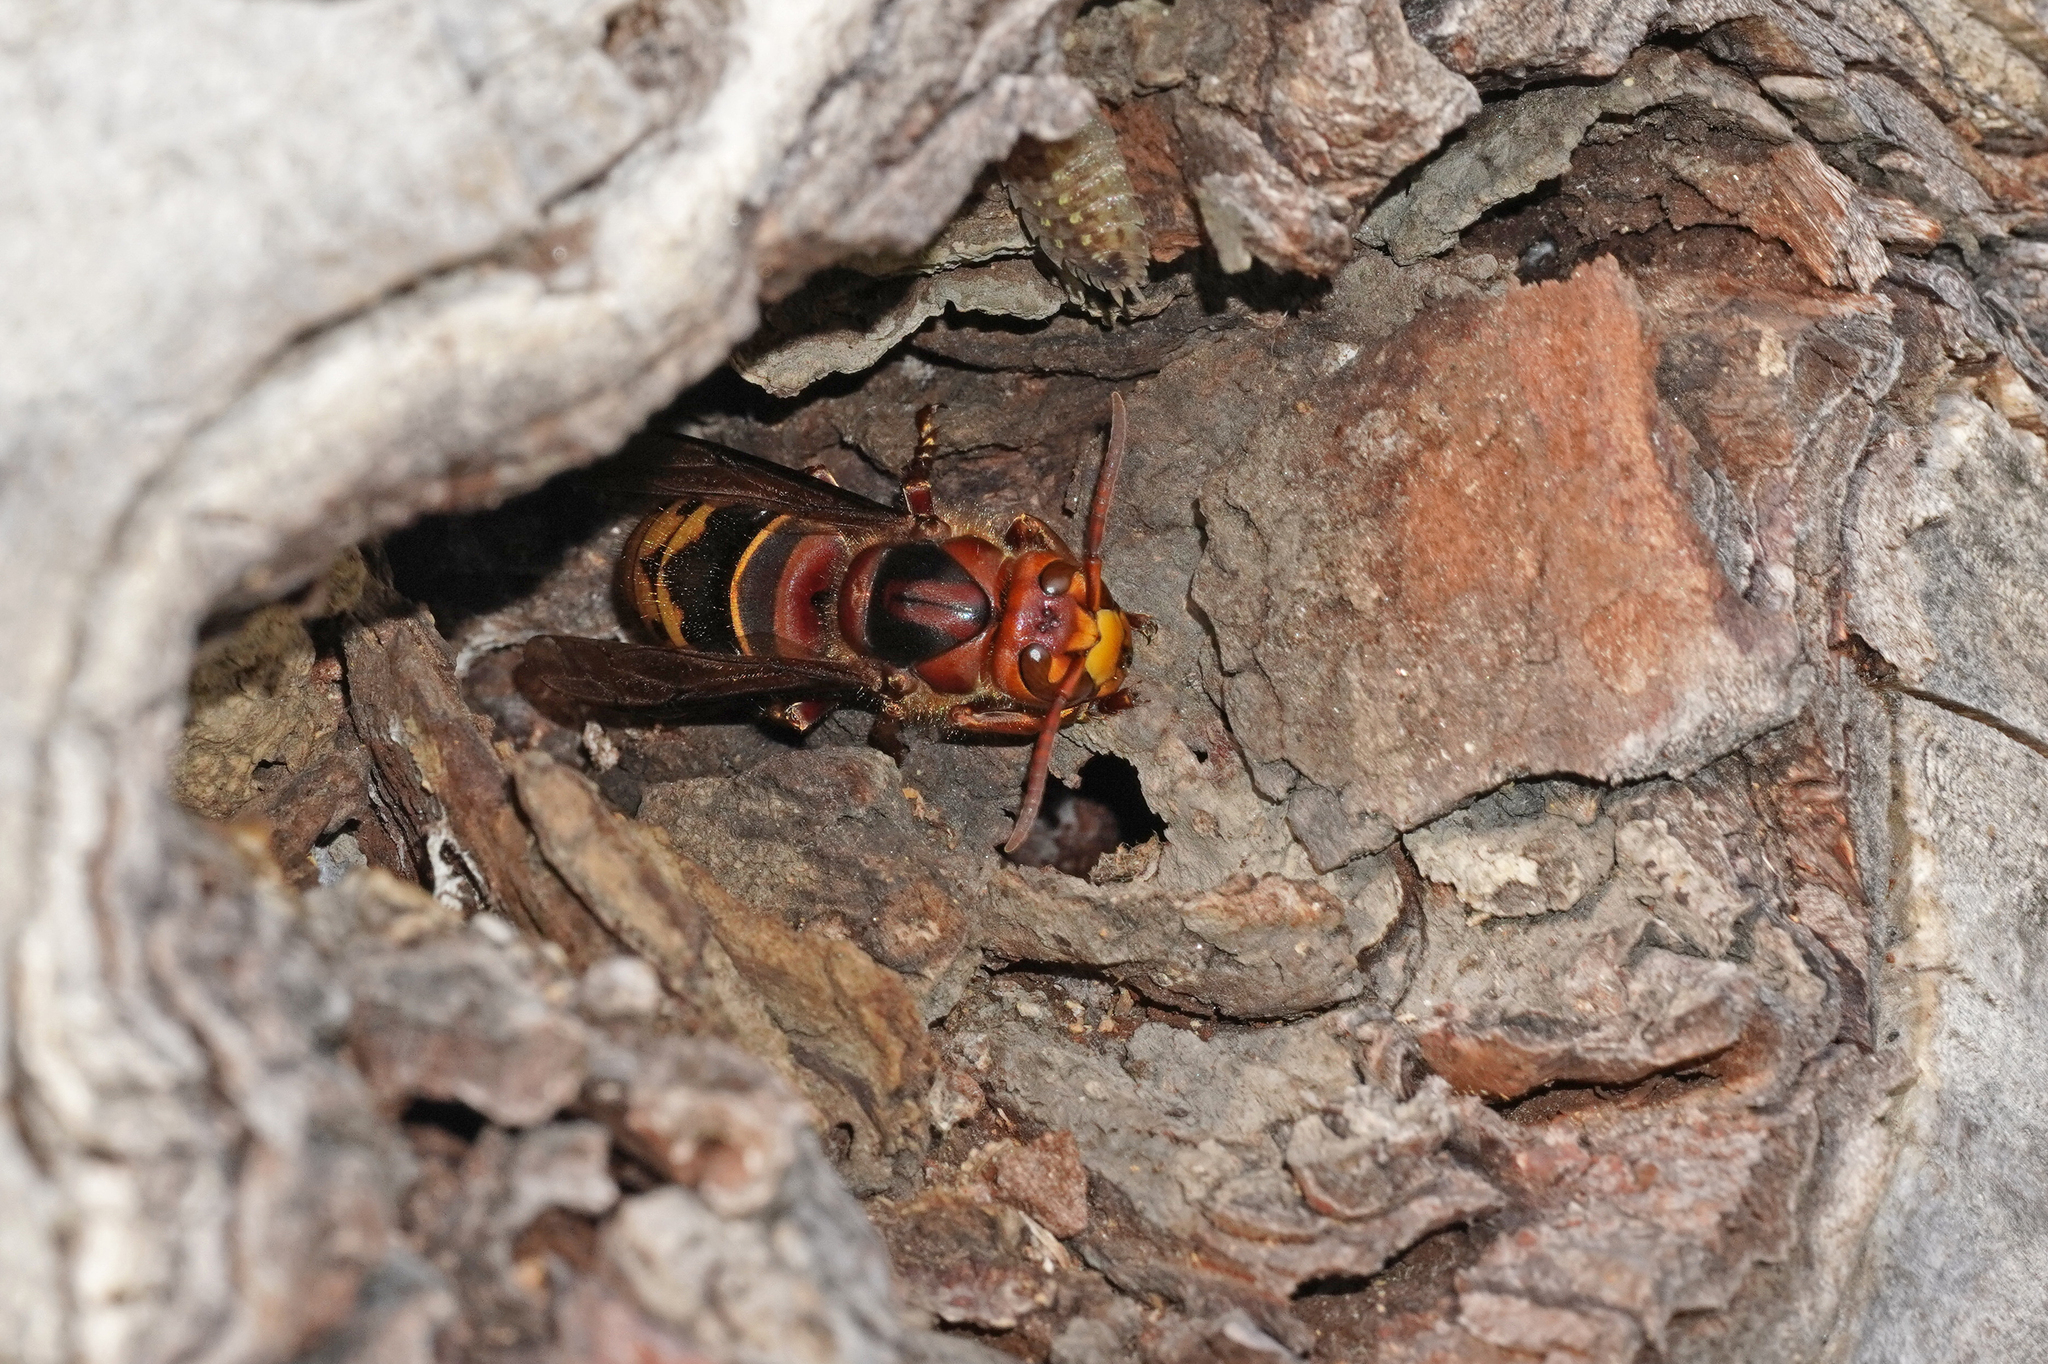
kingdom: Animalia
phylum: Arthropoda
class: Insecta
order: Hymenoptera
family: Vespidae
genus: Vespa
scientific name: Vespa crabro
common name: Hornet
